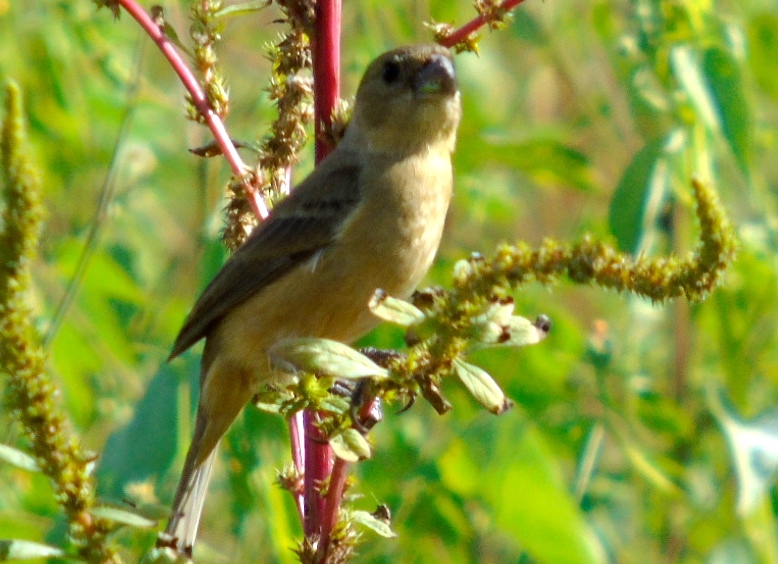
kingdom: Animalia
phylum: Chordata
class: Aves
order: Passeriformes
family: Thraupidae
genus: Sporophila
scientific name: Sporophila torqueola
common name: White-collared seedeater
